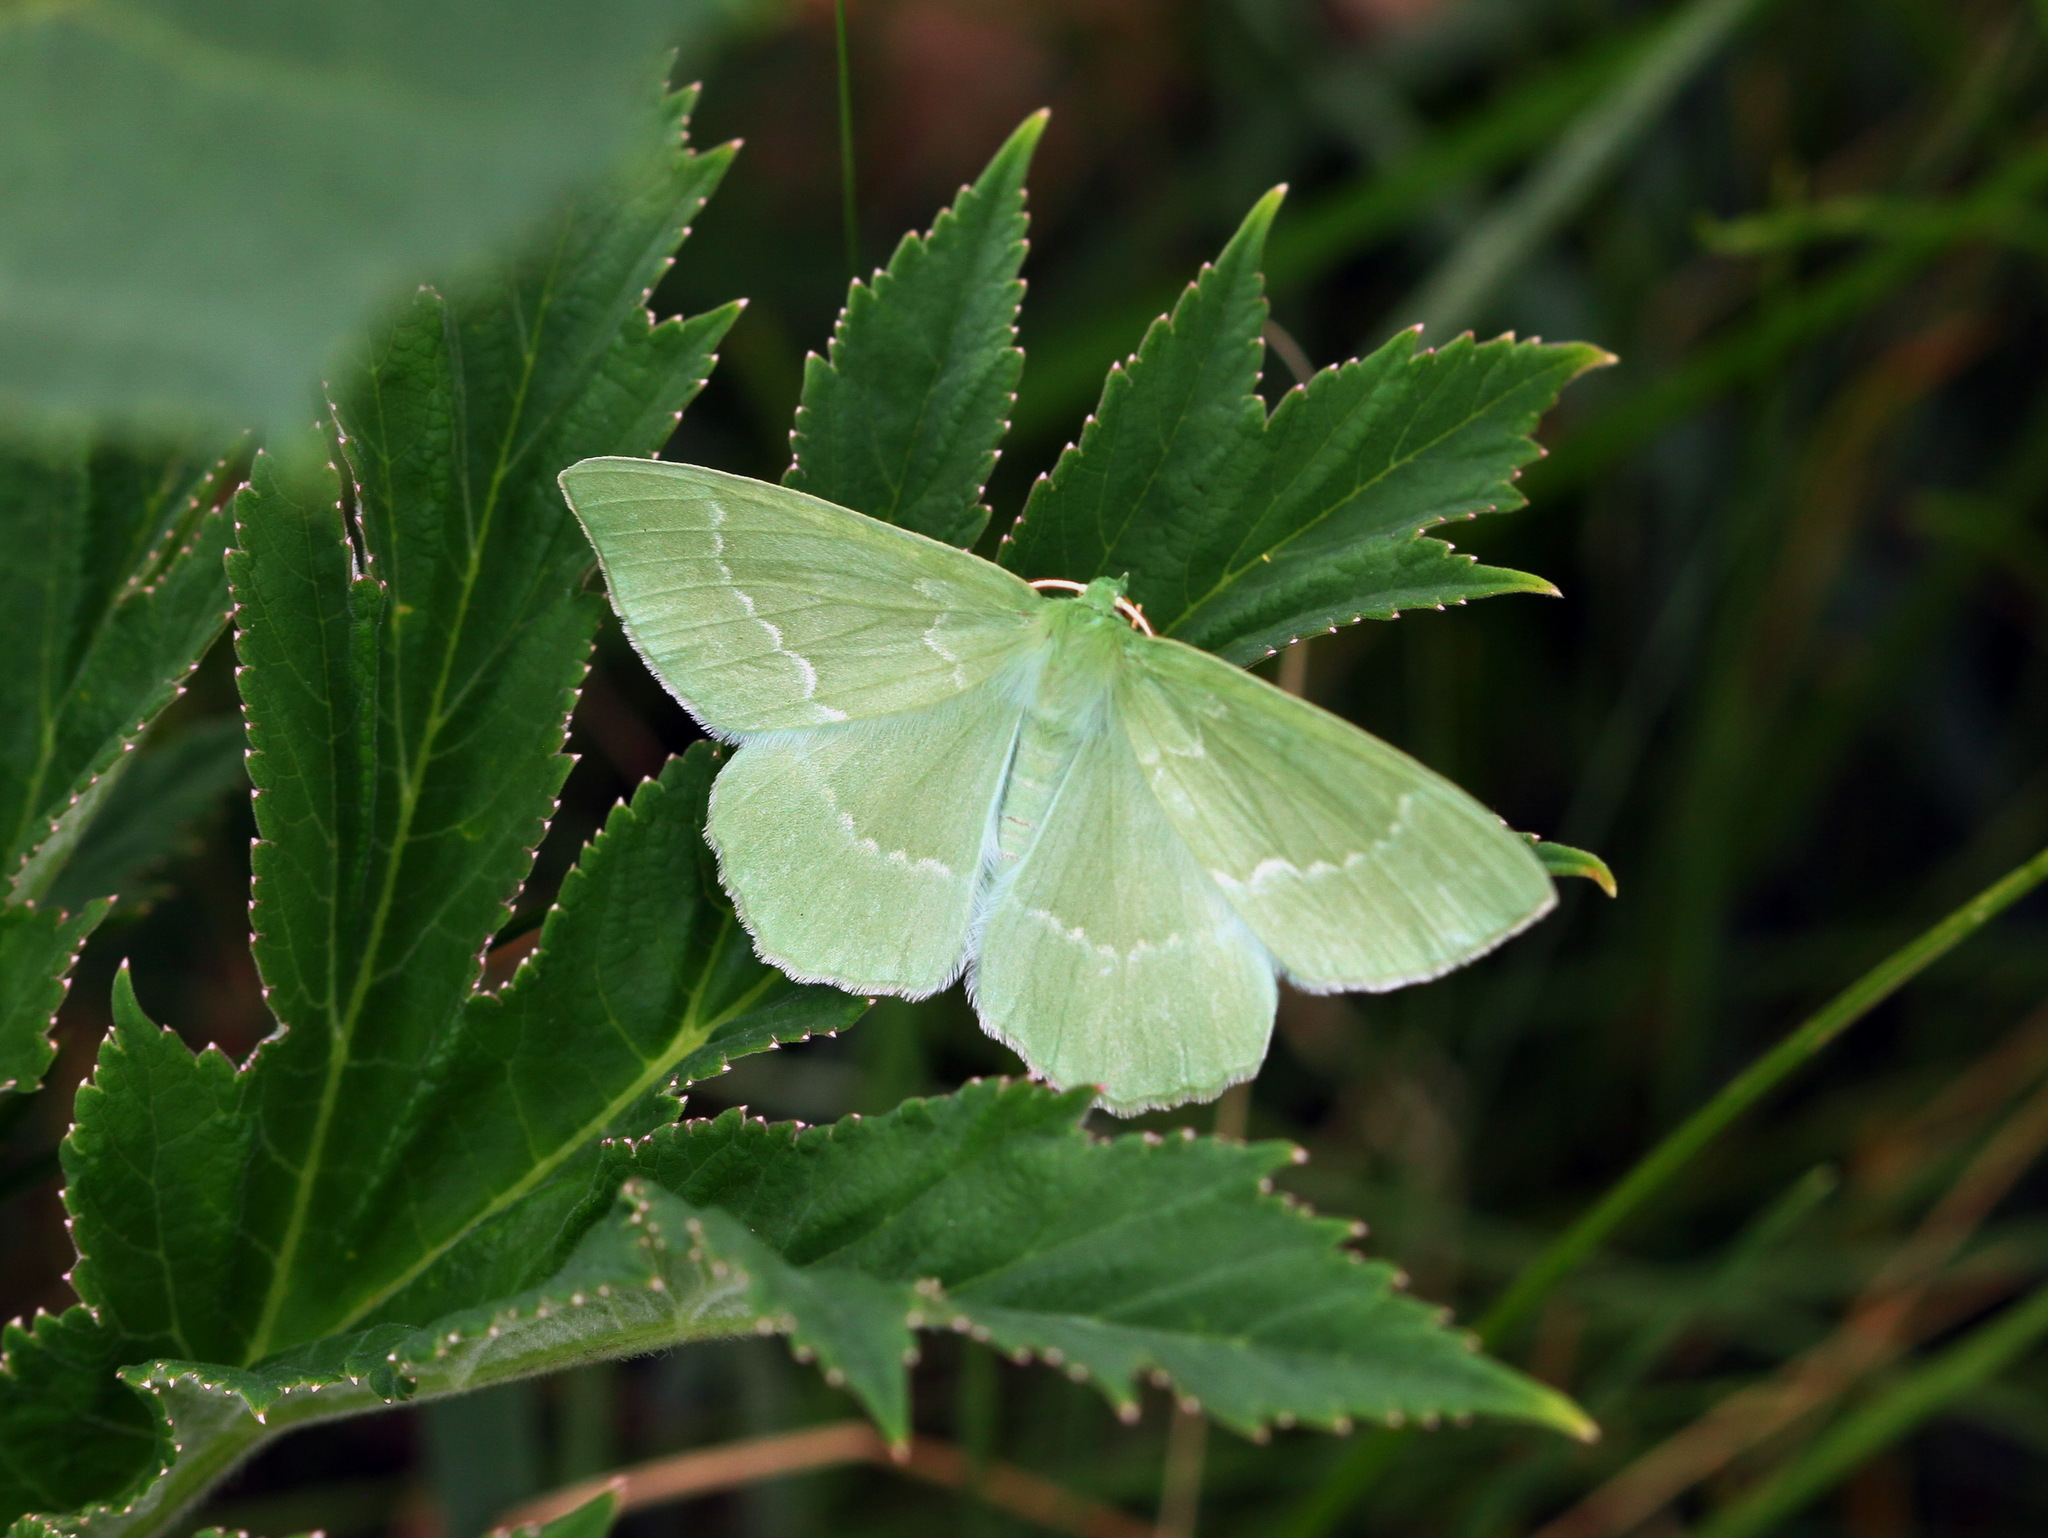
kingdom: Animalia
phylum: Arthropoda
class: Insecta
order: Lepidoptera
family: Geometridae
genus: Geometra
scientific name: Geometra papilionaria
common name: Large emerald
